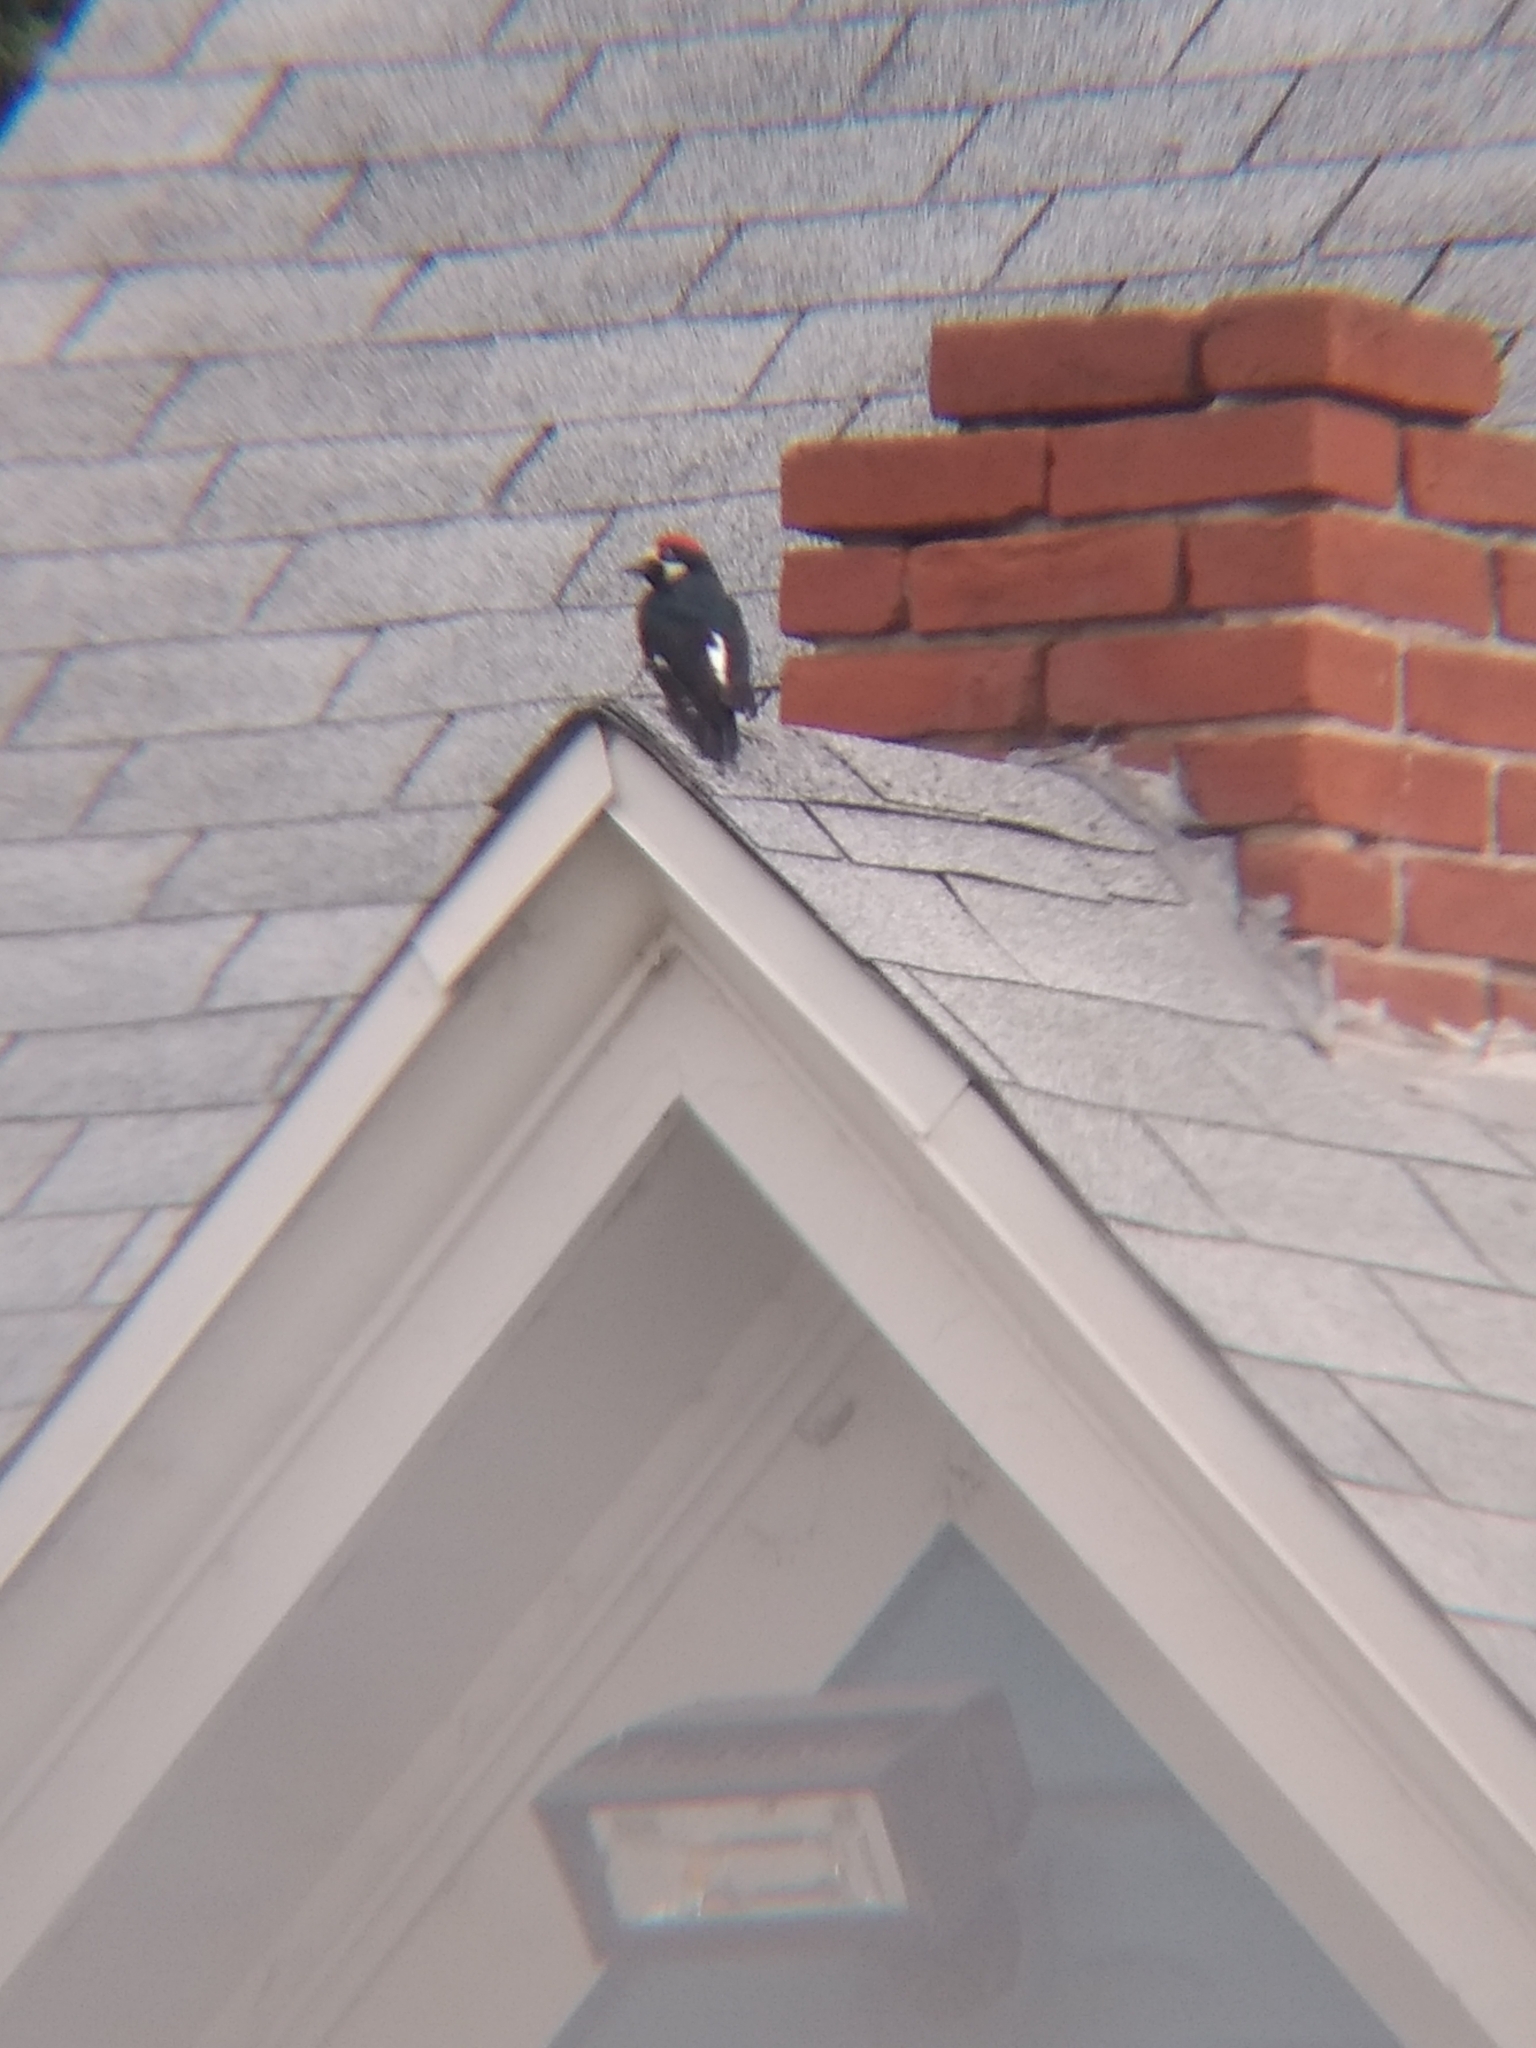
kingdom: Animalia
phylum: Chordata
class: Aves
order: Piciformes
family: Picidae
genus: Melanerpes
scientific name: Melanerpes formicivorus
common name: Acorn woodpecker
